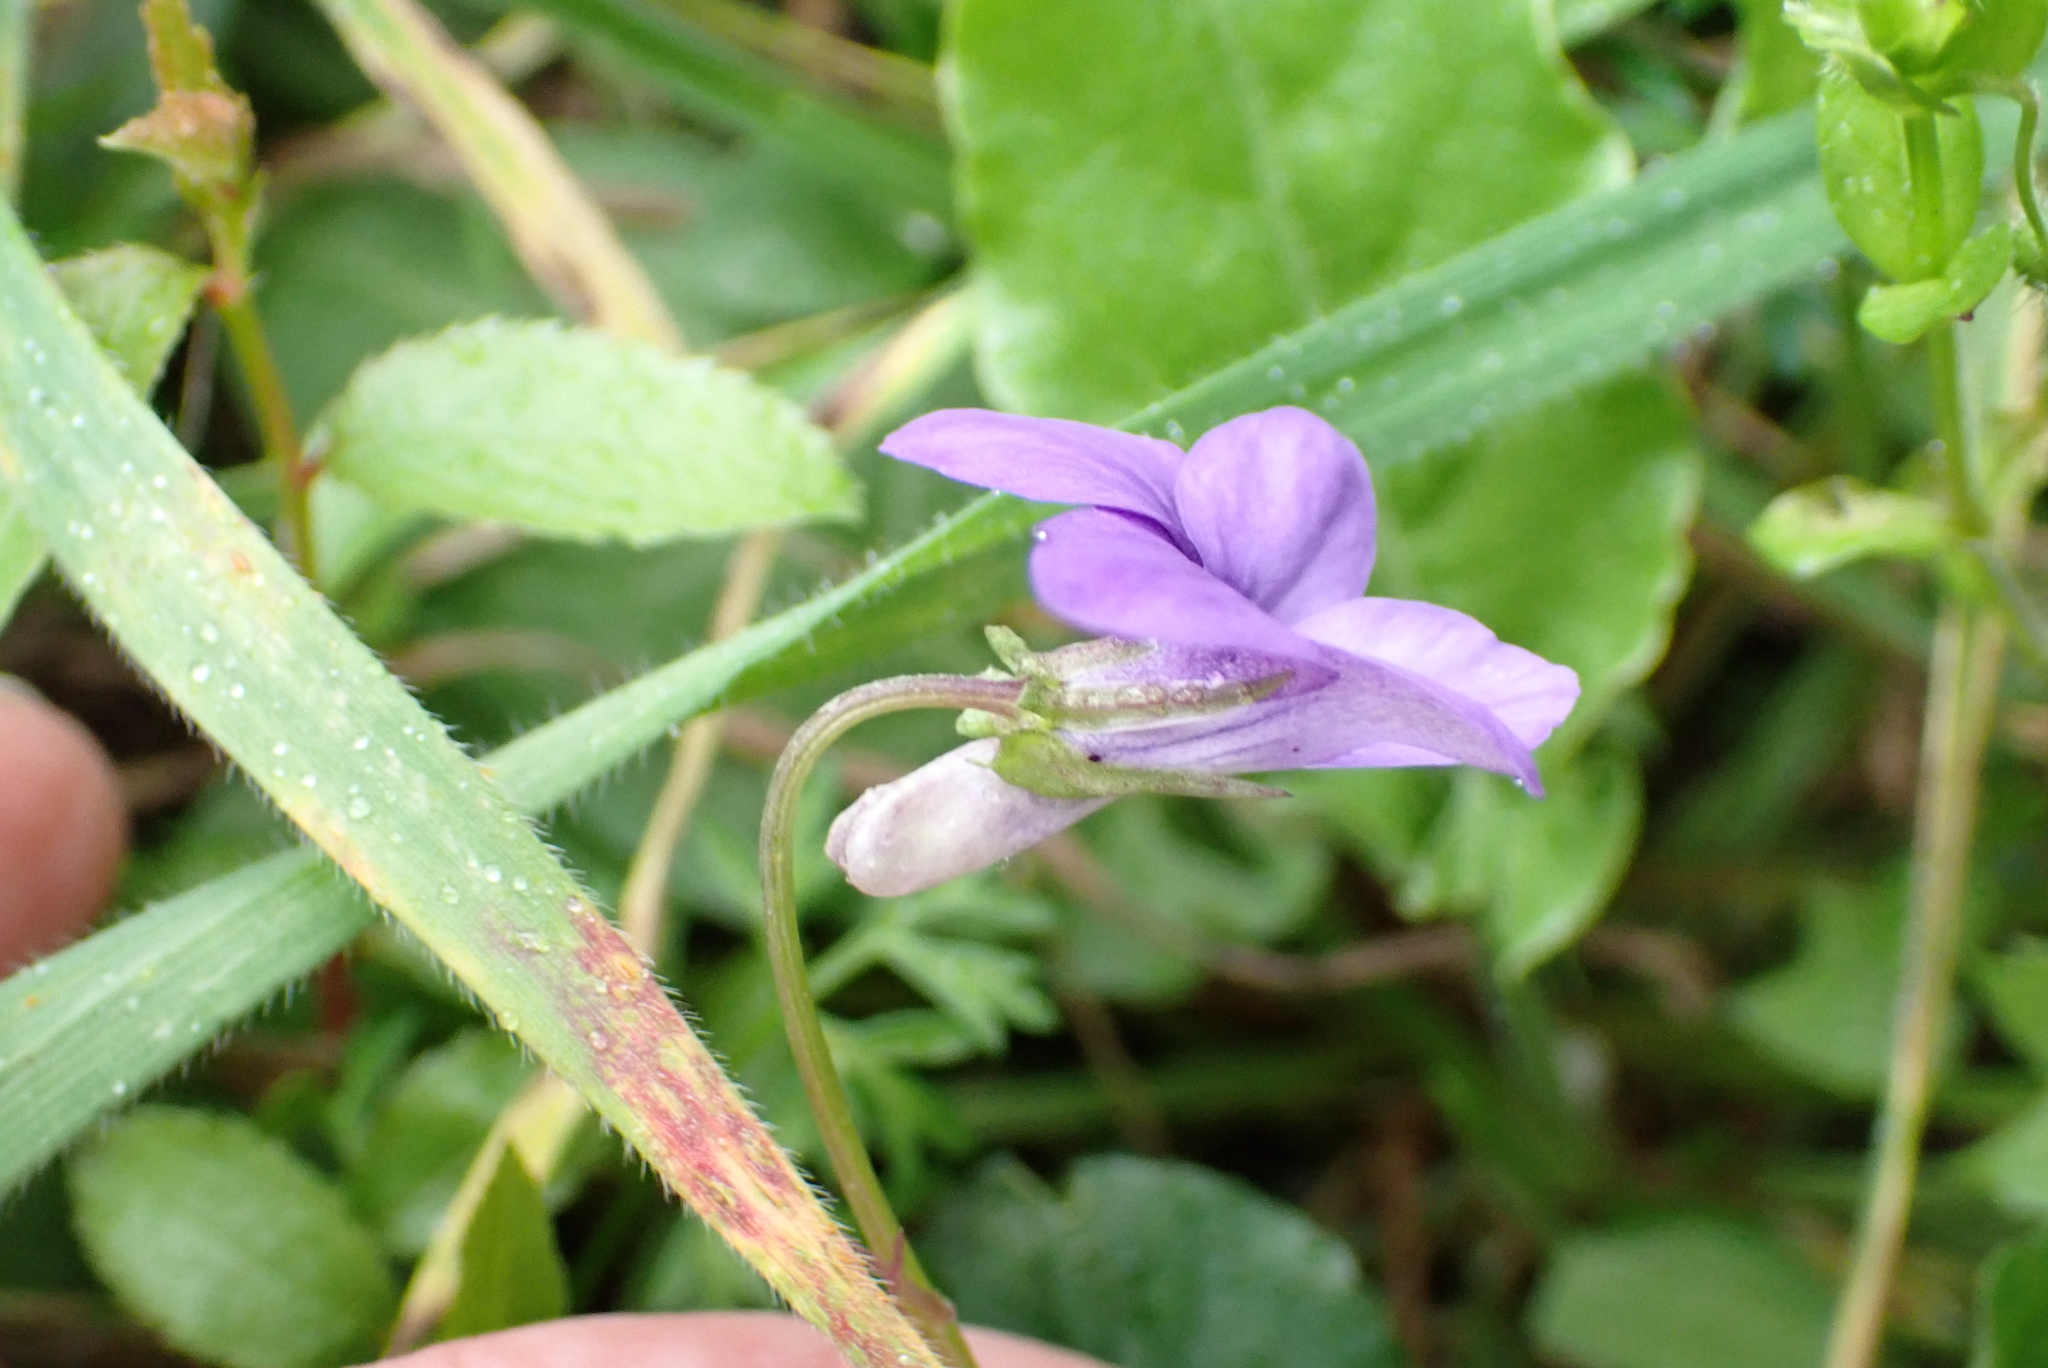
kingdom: Plantae
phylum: Tracheophyta
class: Magnoliopsida
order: Malpighiales
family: Violaceae
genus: Viola
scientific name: Viola riviniana
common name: Common dog-violet
